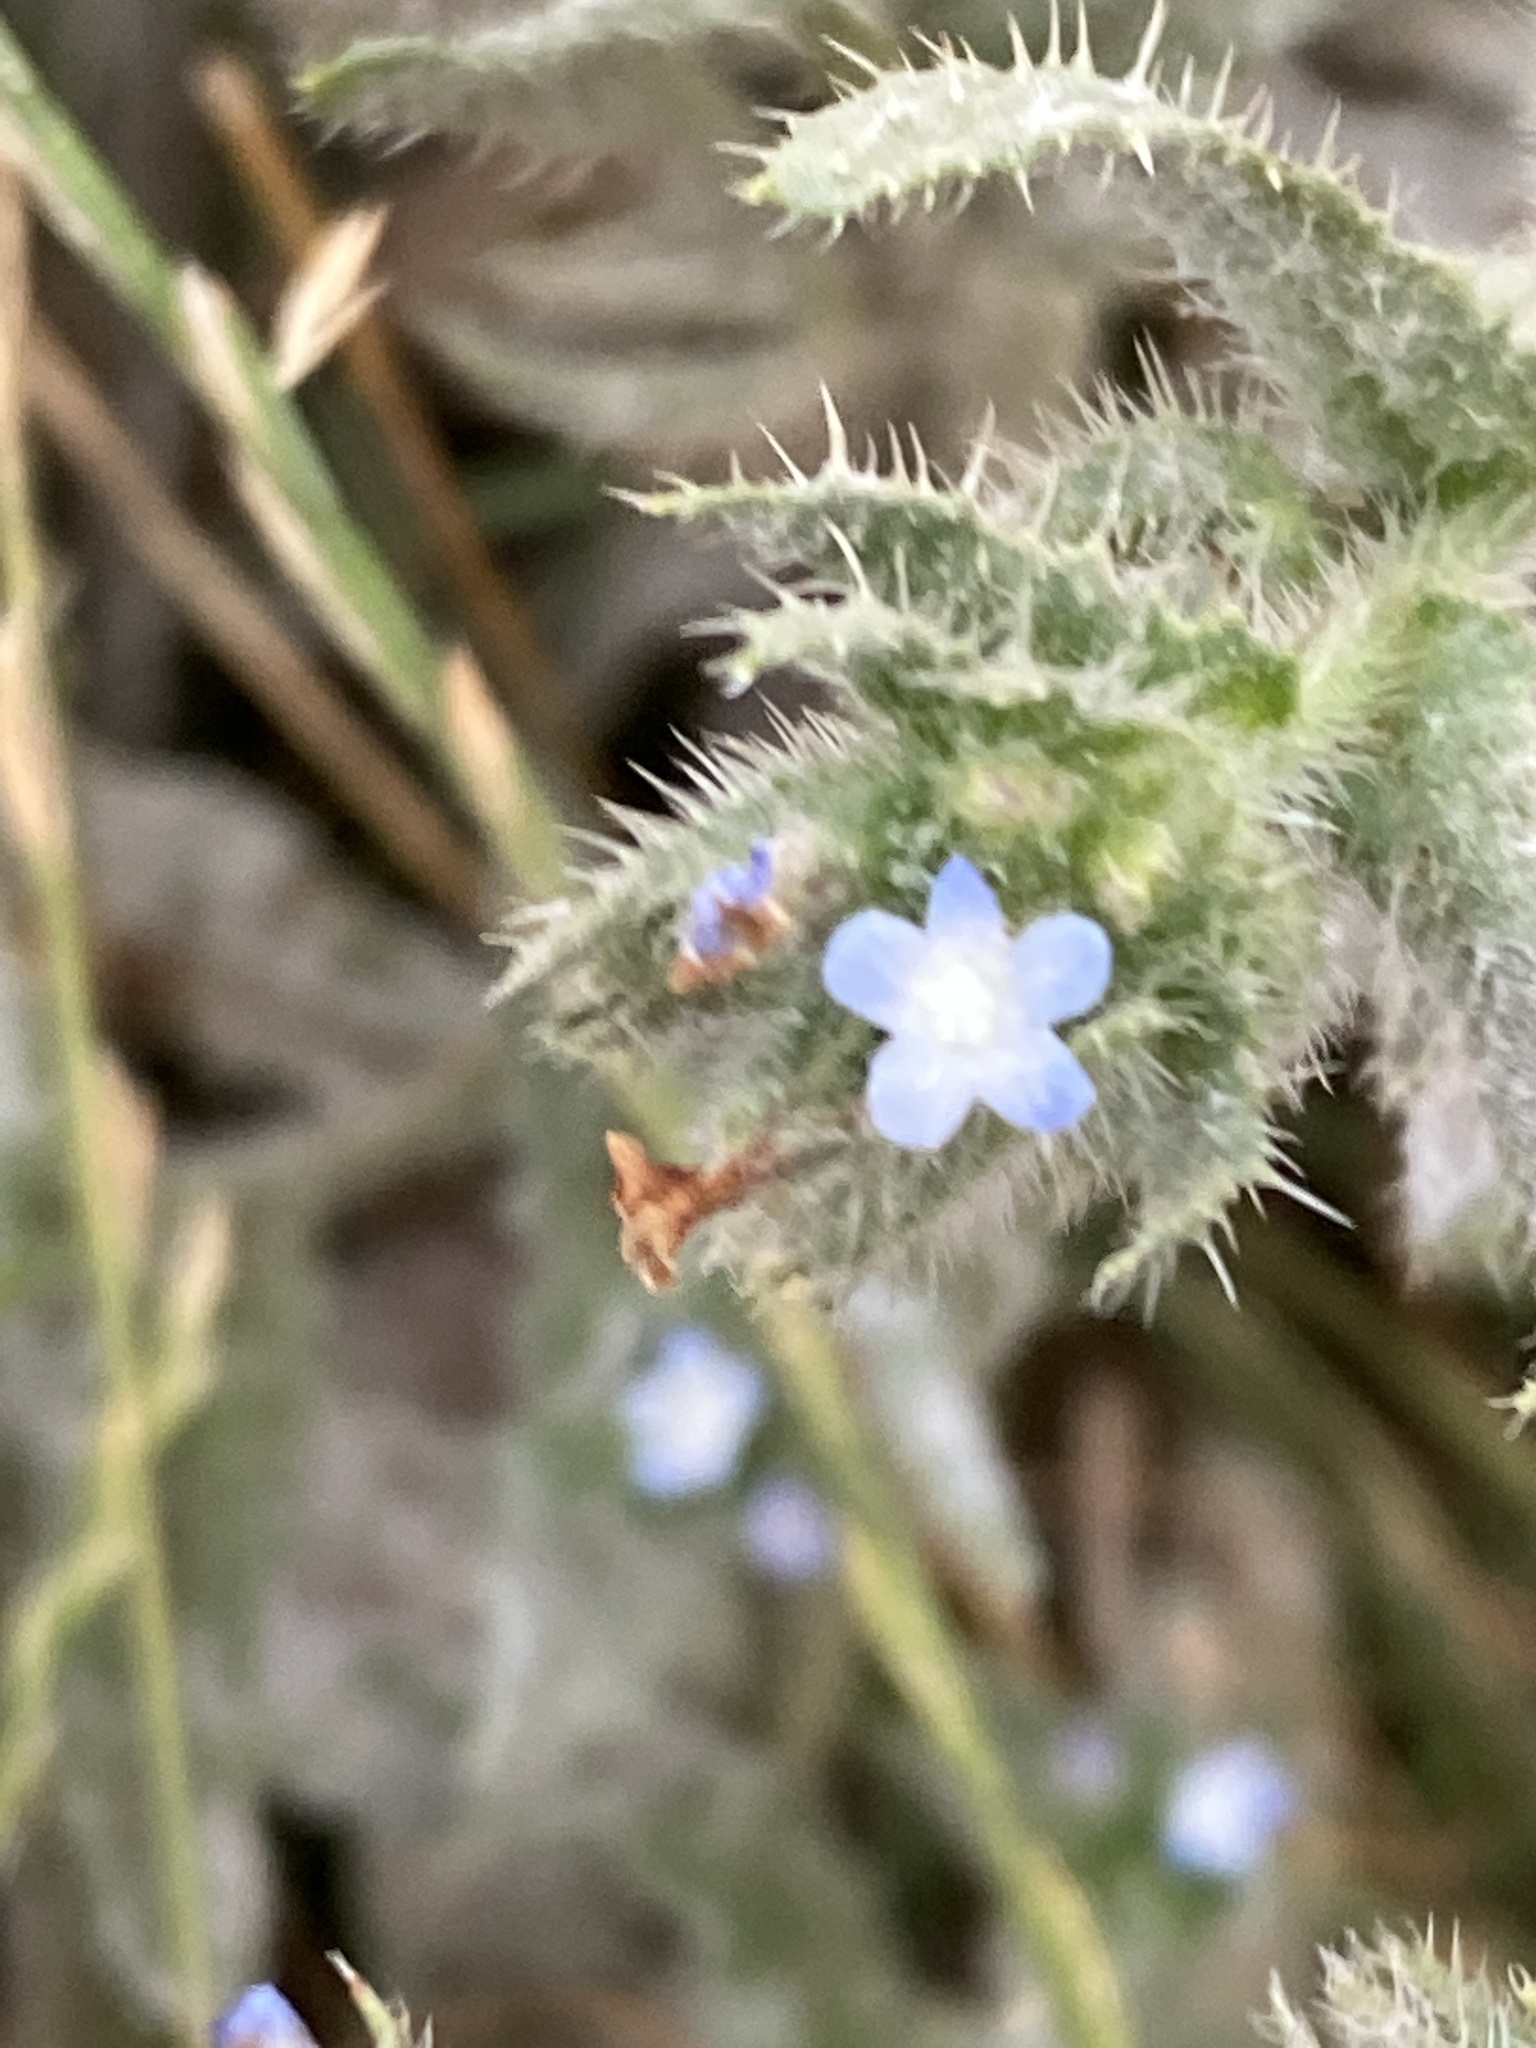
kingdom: Plantae
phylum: Tracheophyta
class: Magnoliopsida
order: Boraginales
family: Boraginaceae
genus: Lycopsis
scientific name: Lycopsis arvensis
